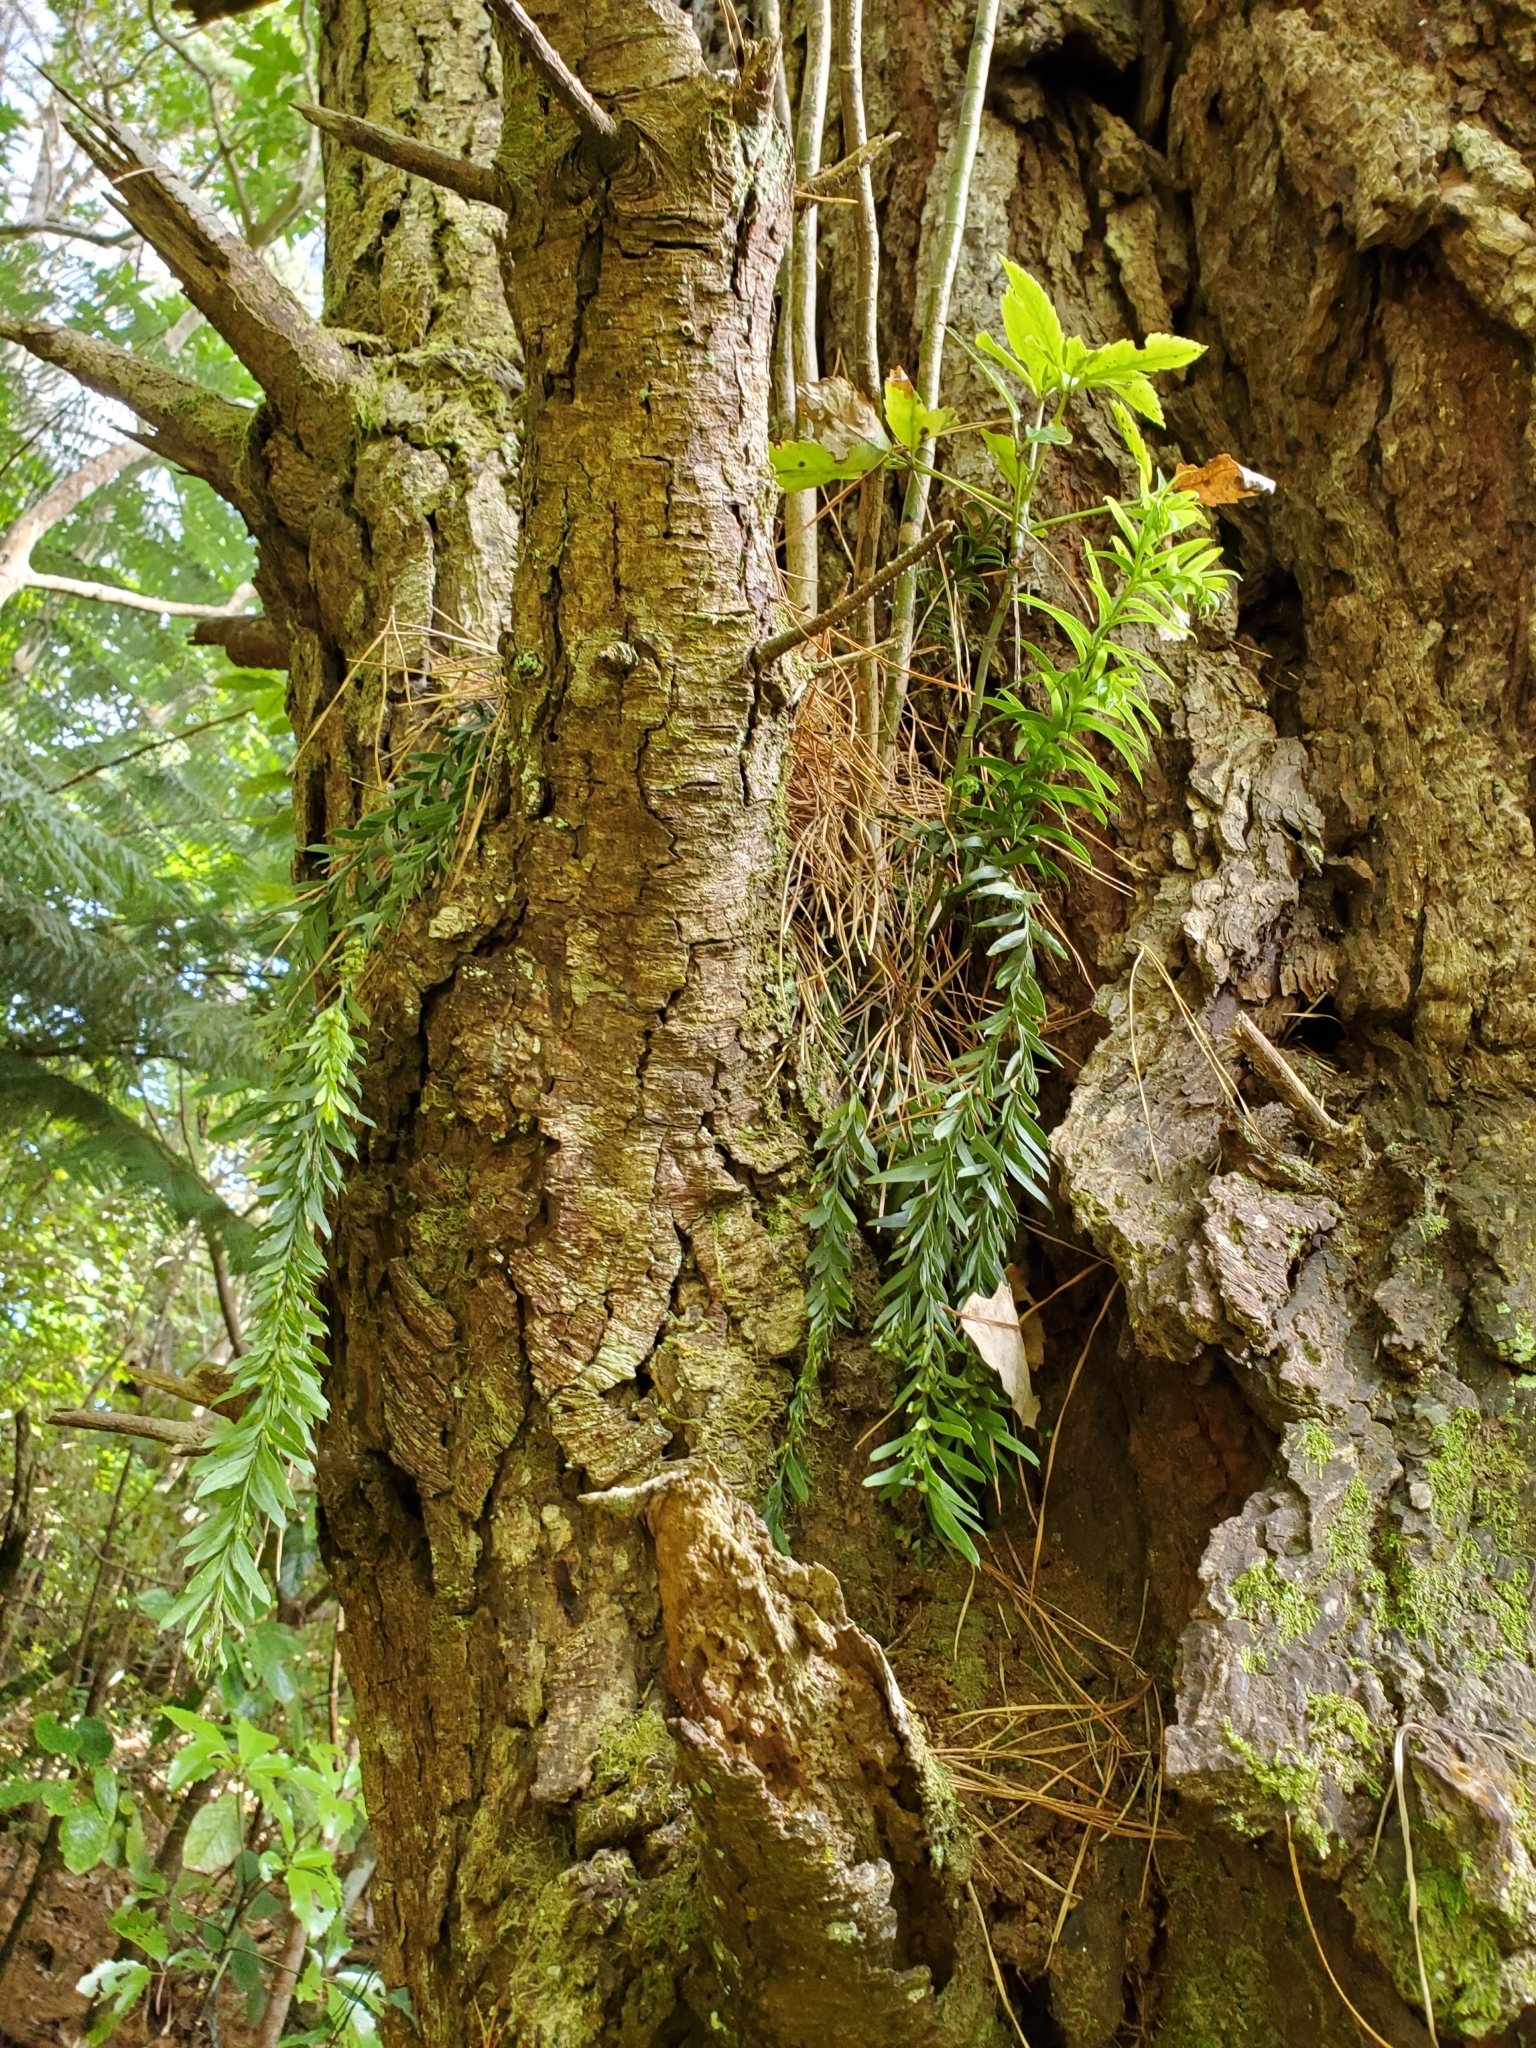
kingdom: Plantae
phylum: Tracheophyta
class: Polypodiopsida
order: Psilotales
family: Psilotaceae
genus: Tmesipteris
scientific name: Tmesipteris elongata
